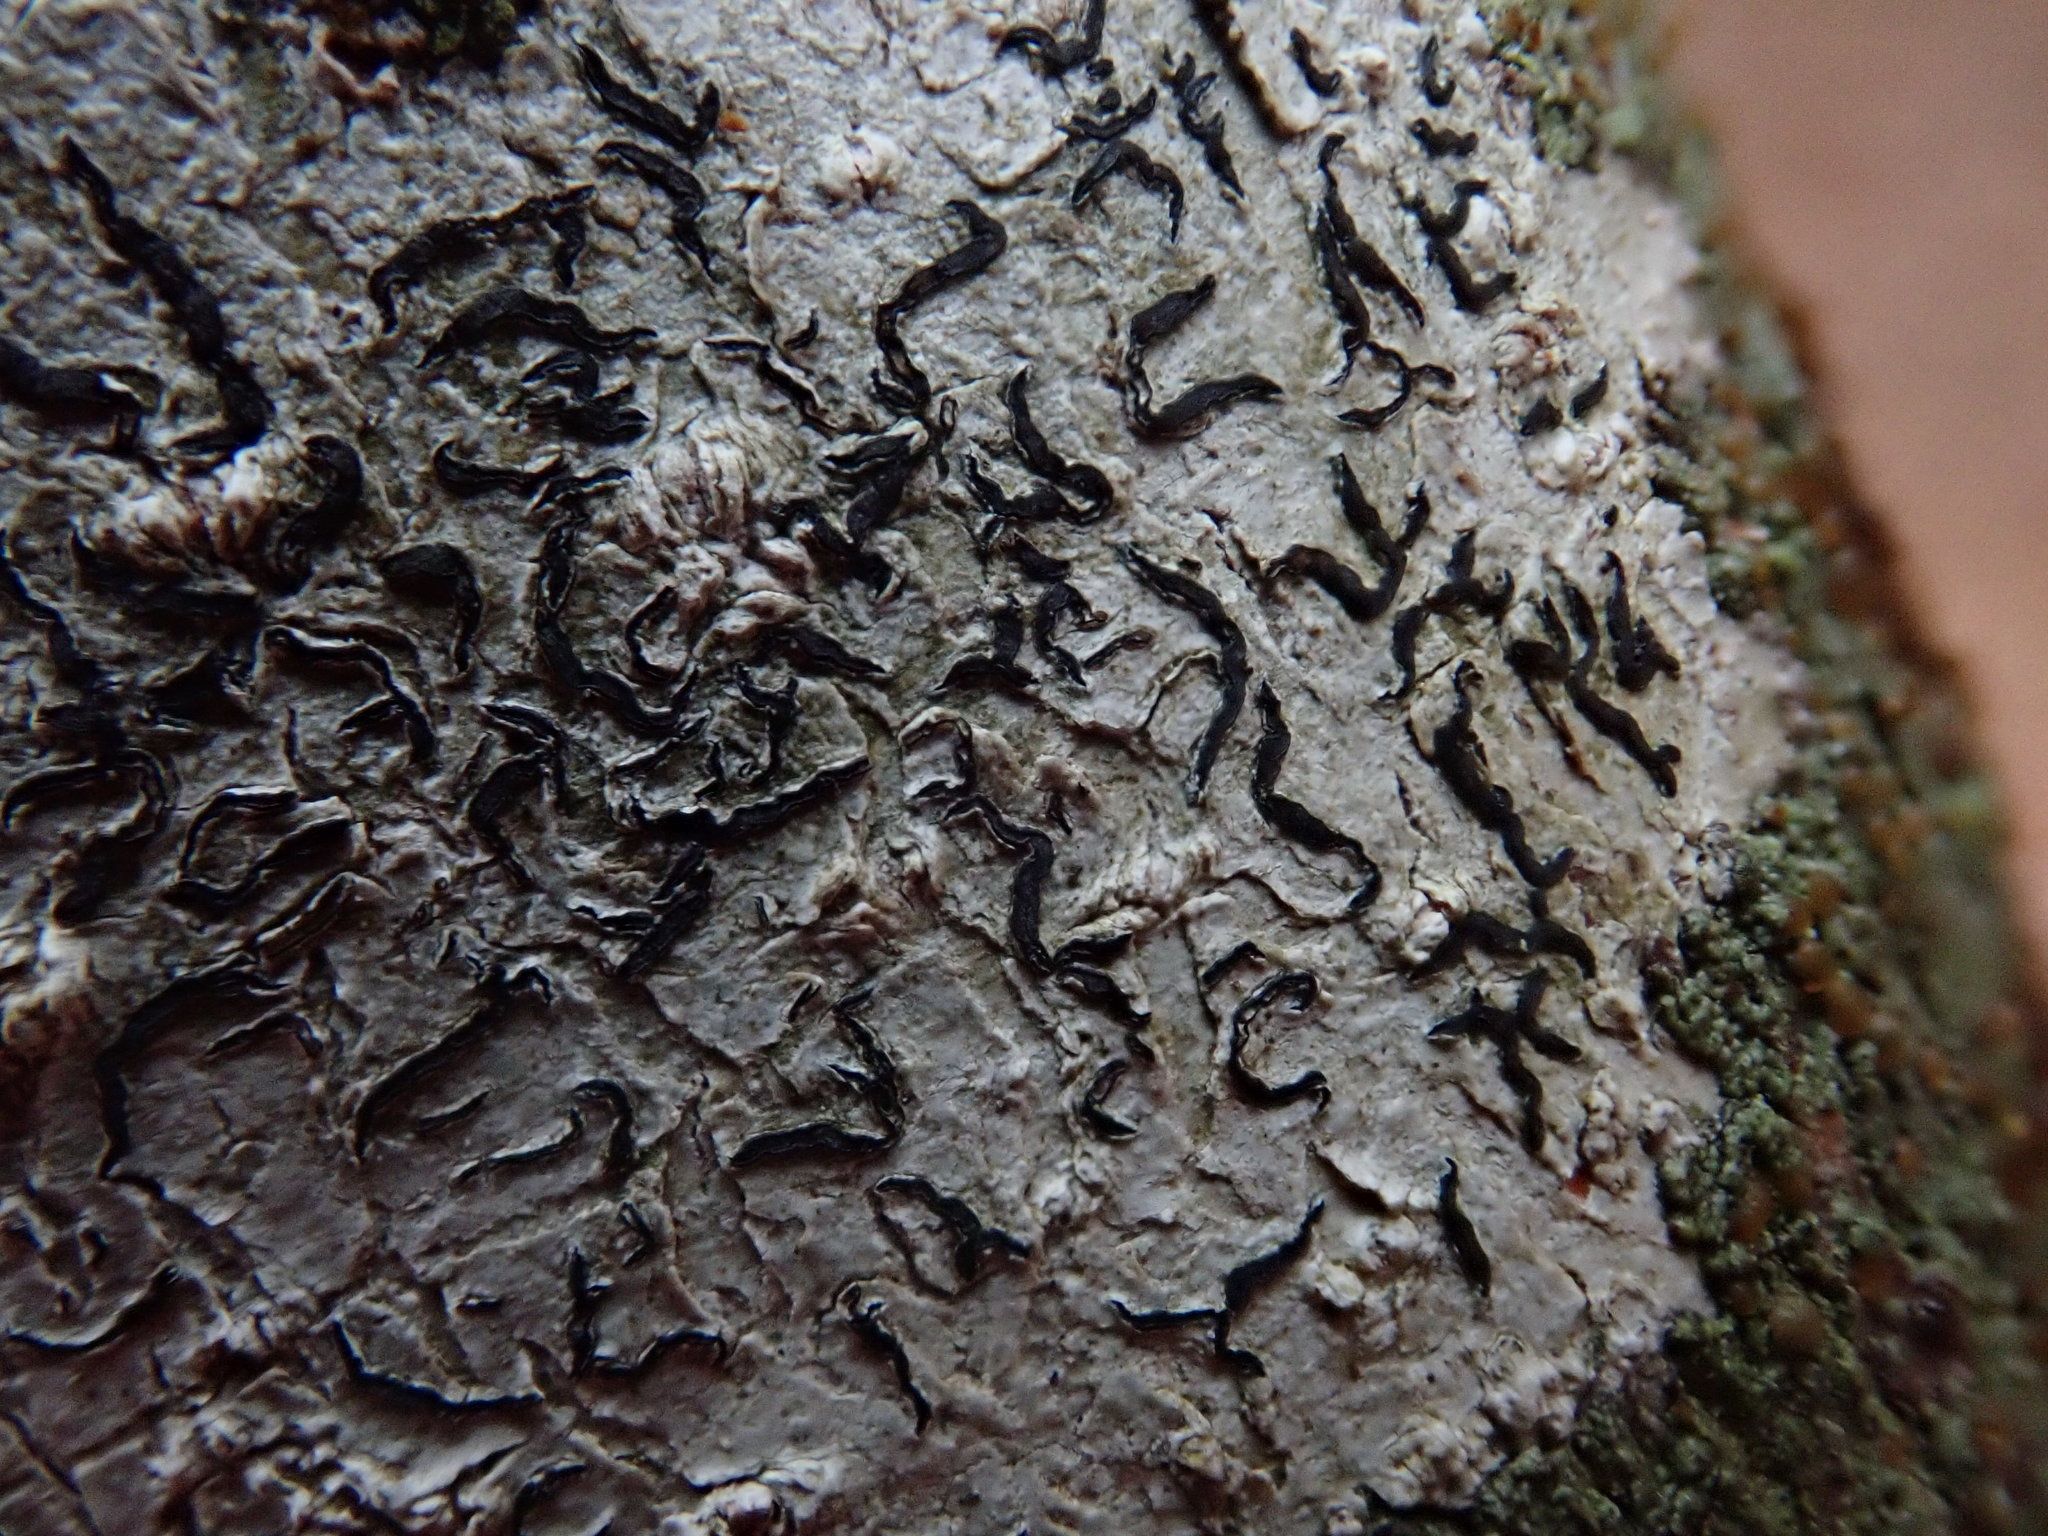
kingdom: Fungi
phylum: Ascomycota
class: Lecanoromycetes
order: Ostropales
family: Graphidaceae
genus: Graphis
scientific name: Graphis scripta
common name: Script lichen
